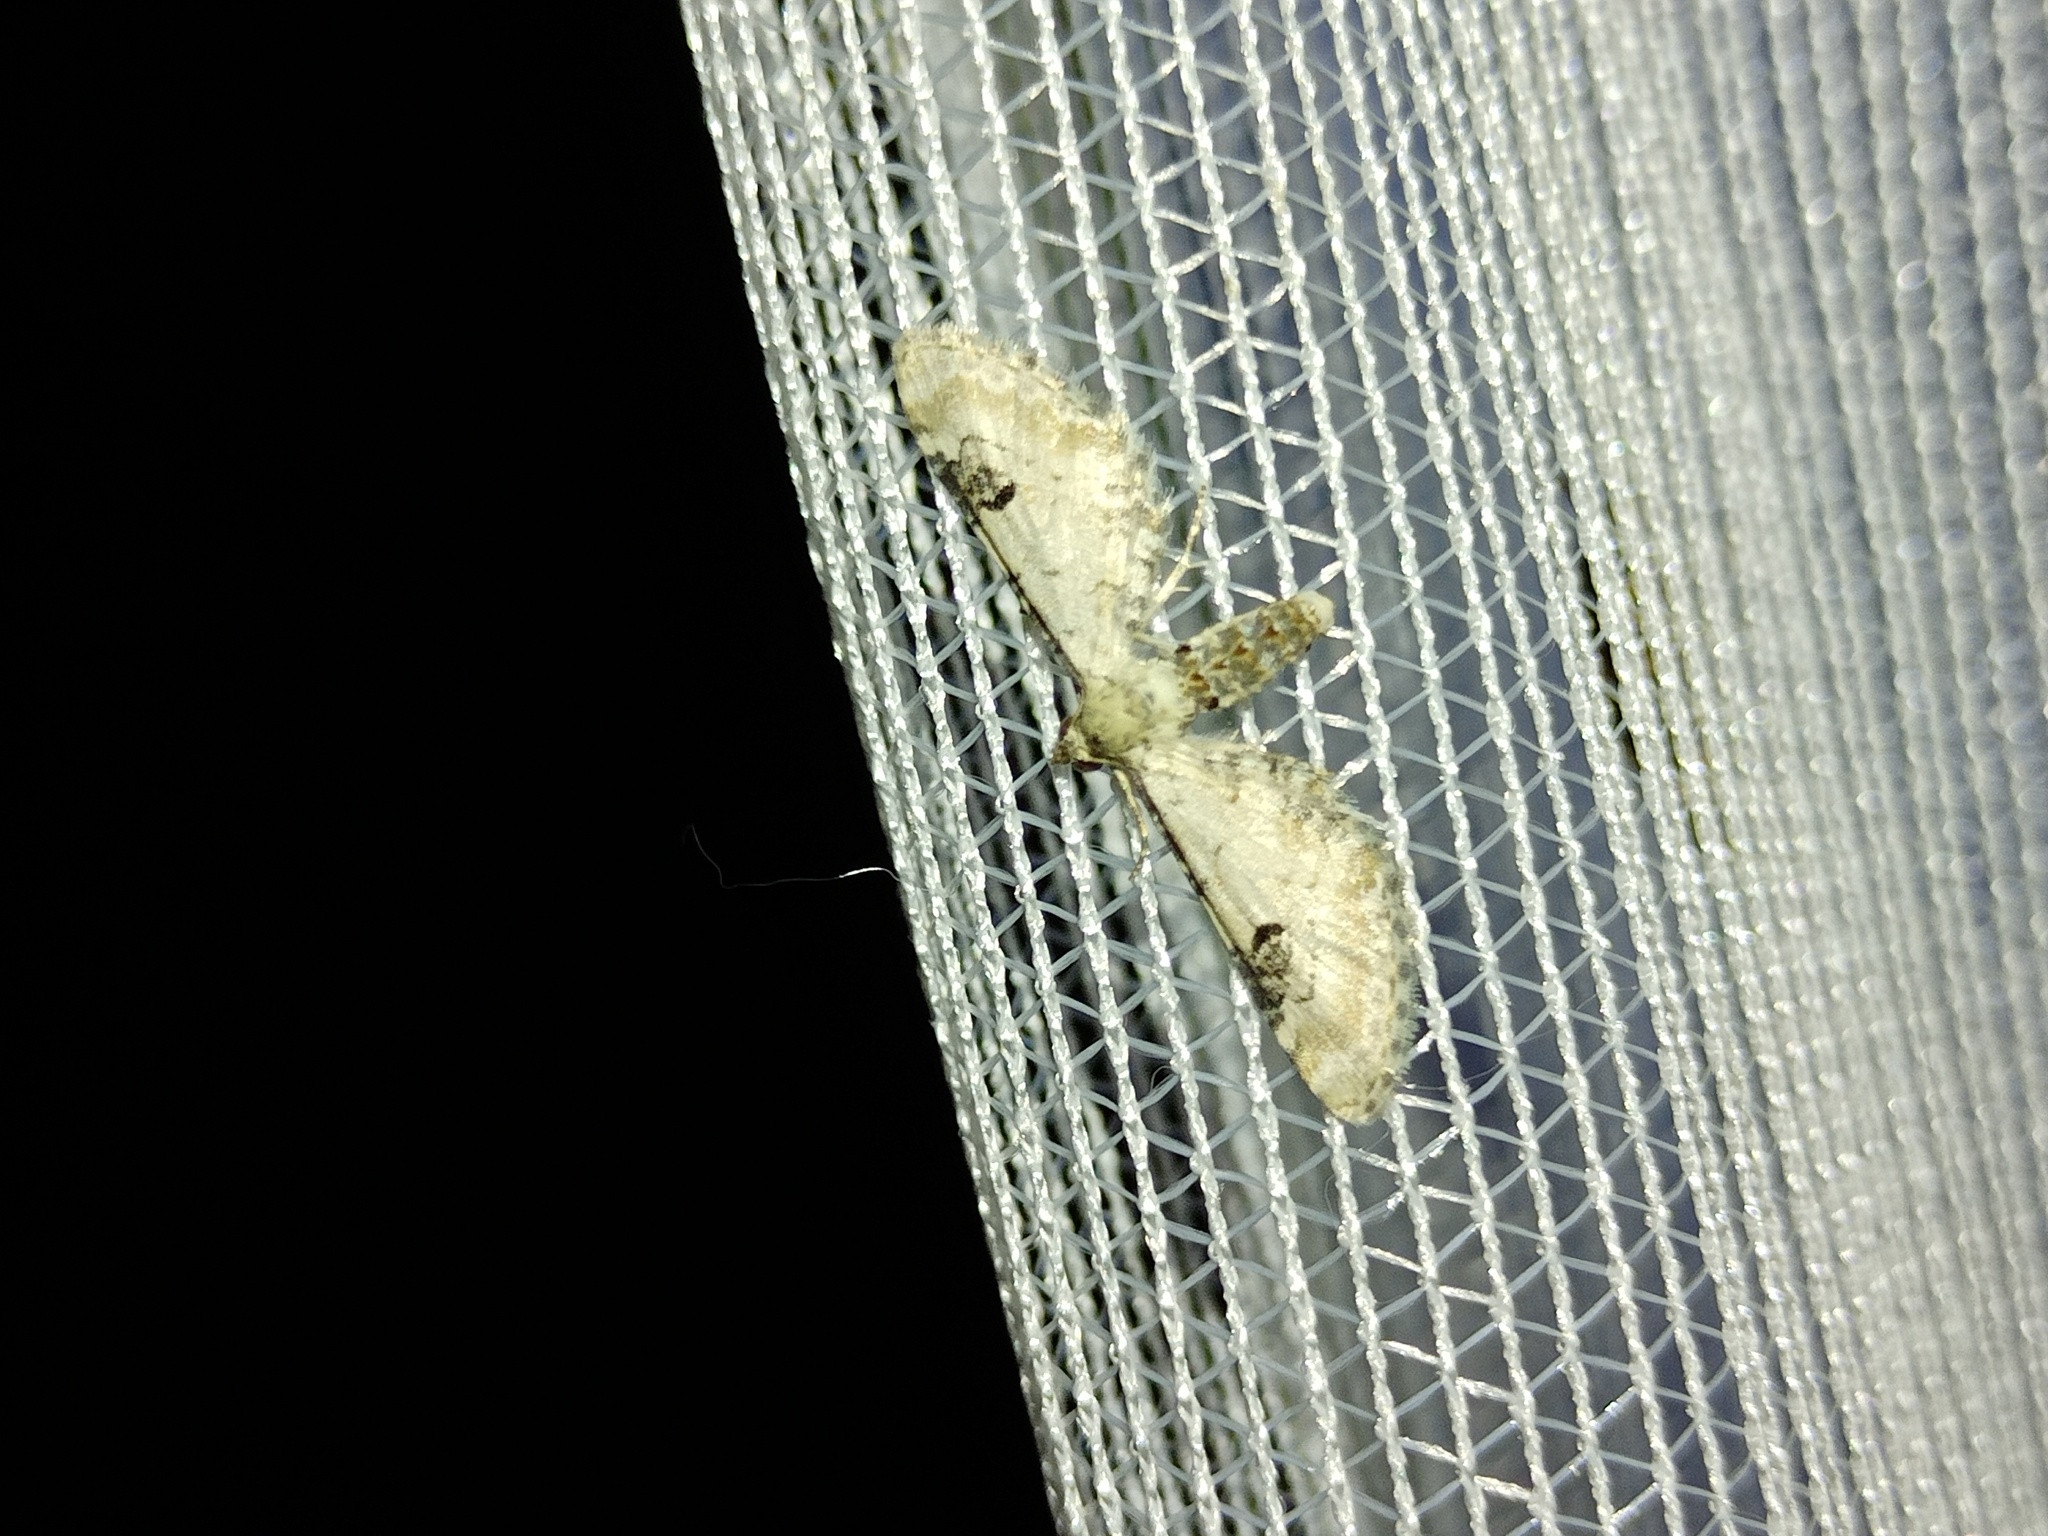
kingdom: Animalia
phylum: Arthropoda
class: Insecta
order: Lepidoptera
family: Geometridae
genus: Eupithecia
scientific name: Eupithecia centaureata
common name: Lime-speck pug
